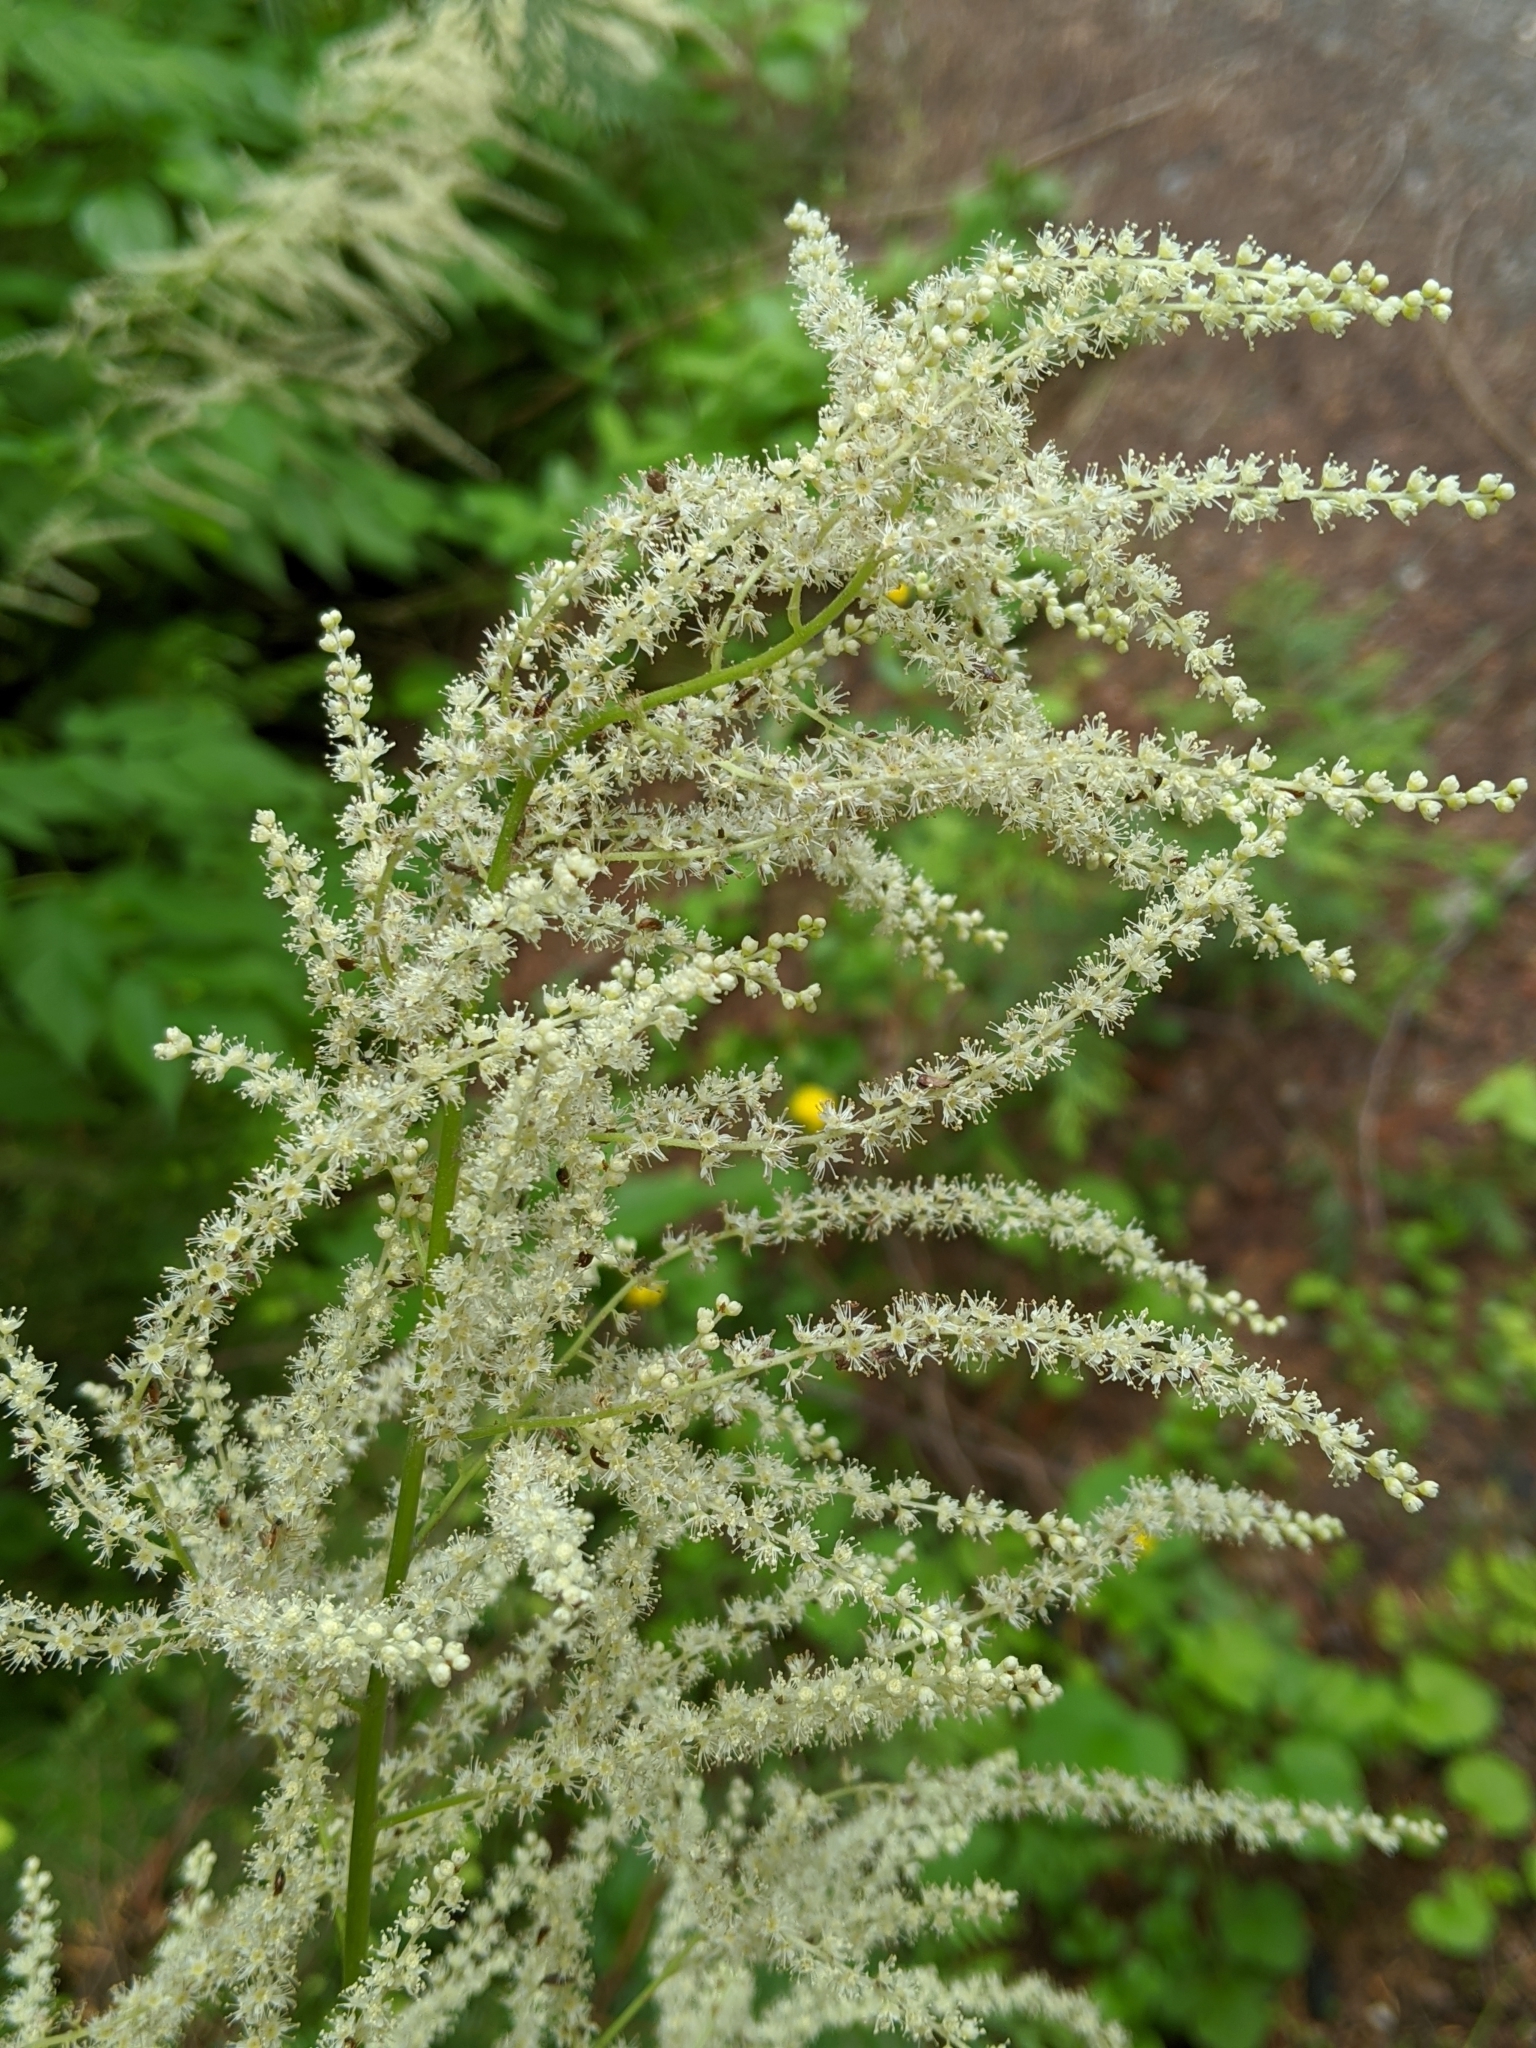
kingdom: Plantae
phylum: Tracheophyta
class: Magnoliopsida
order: Rosales
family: Rosaceae
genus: Aruncus
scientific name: Aruncus dioicus
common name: Buck's-beard
